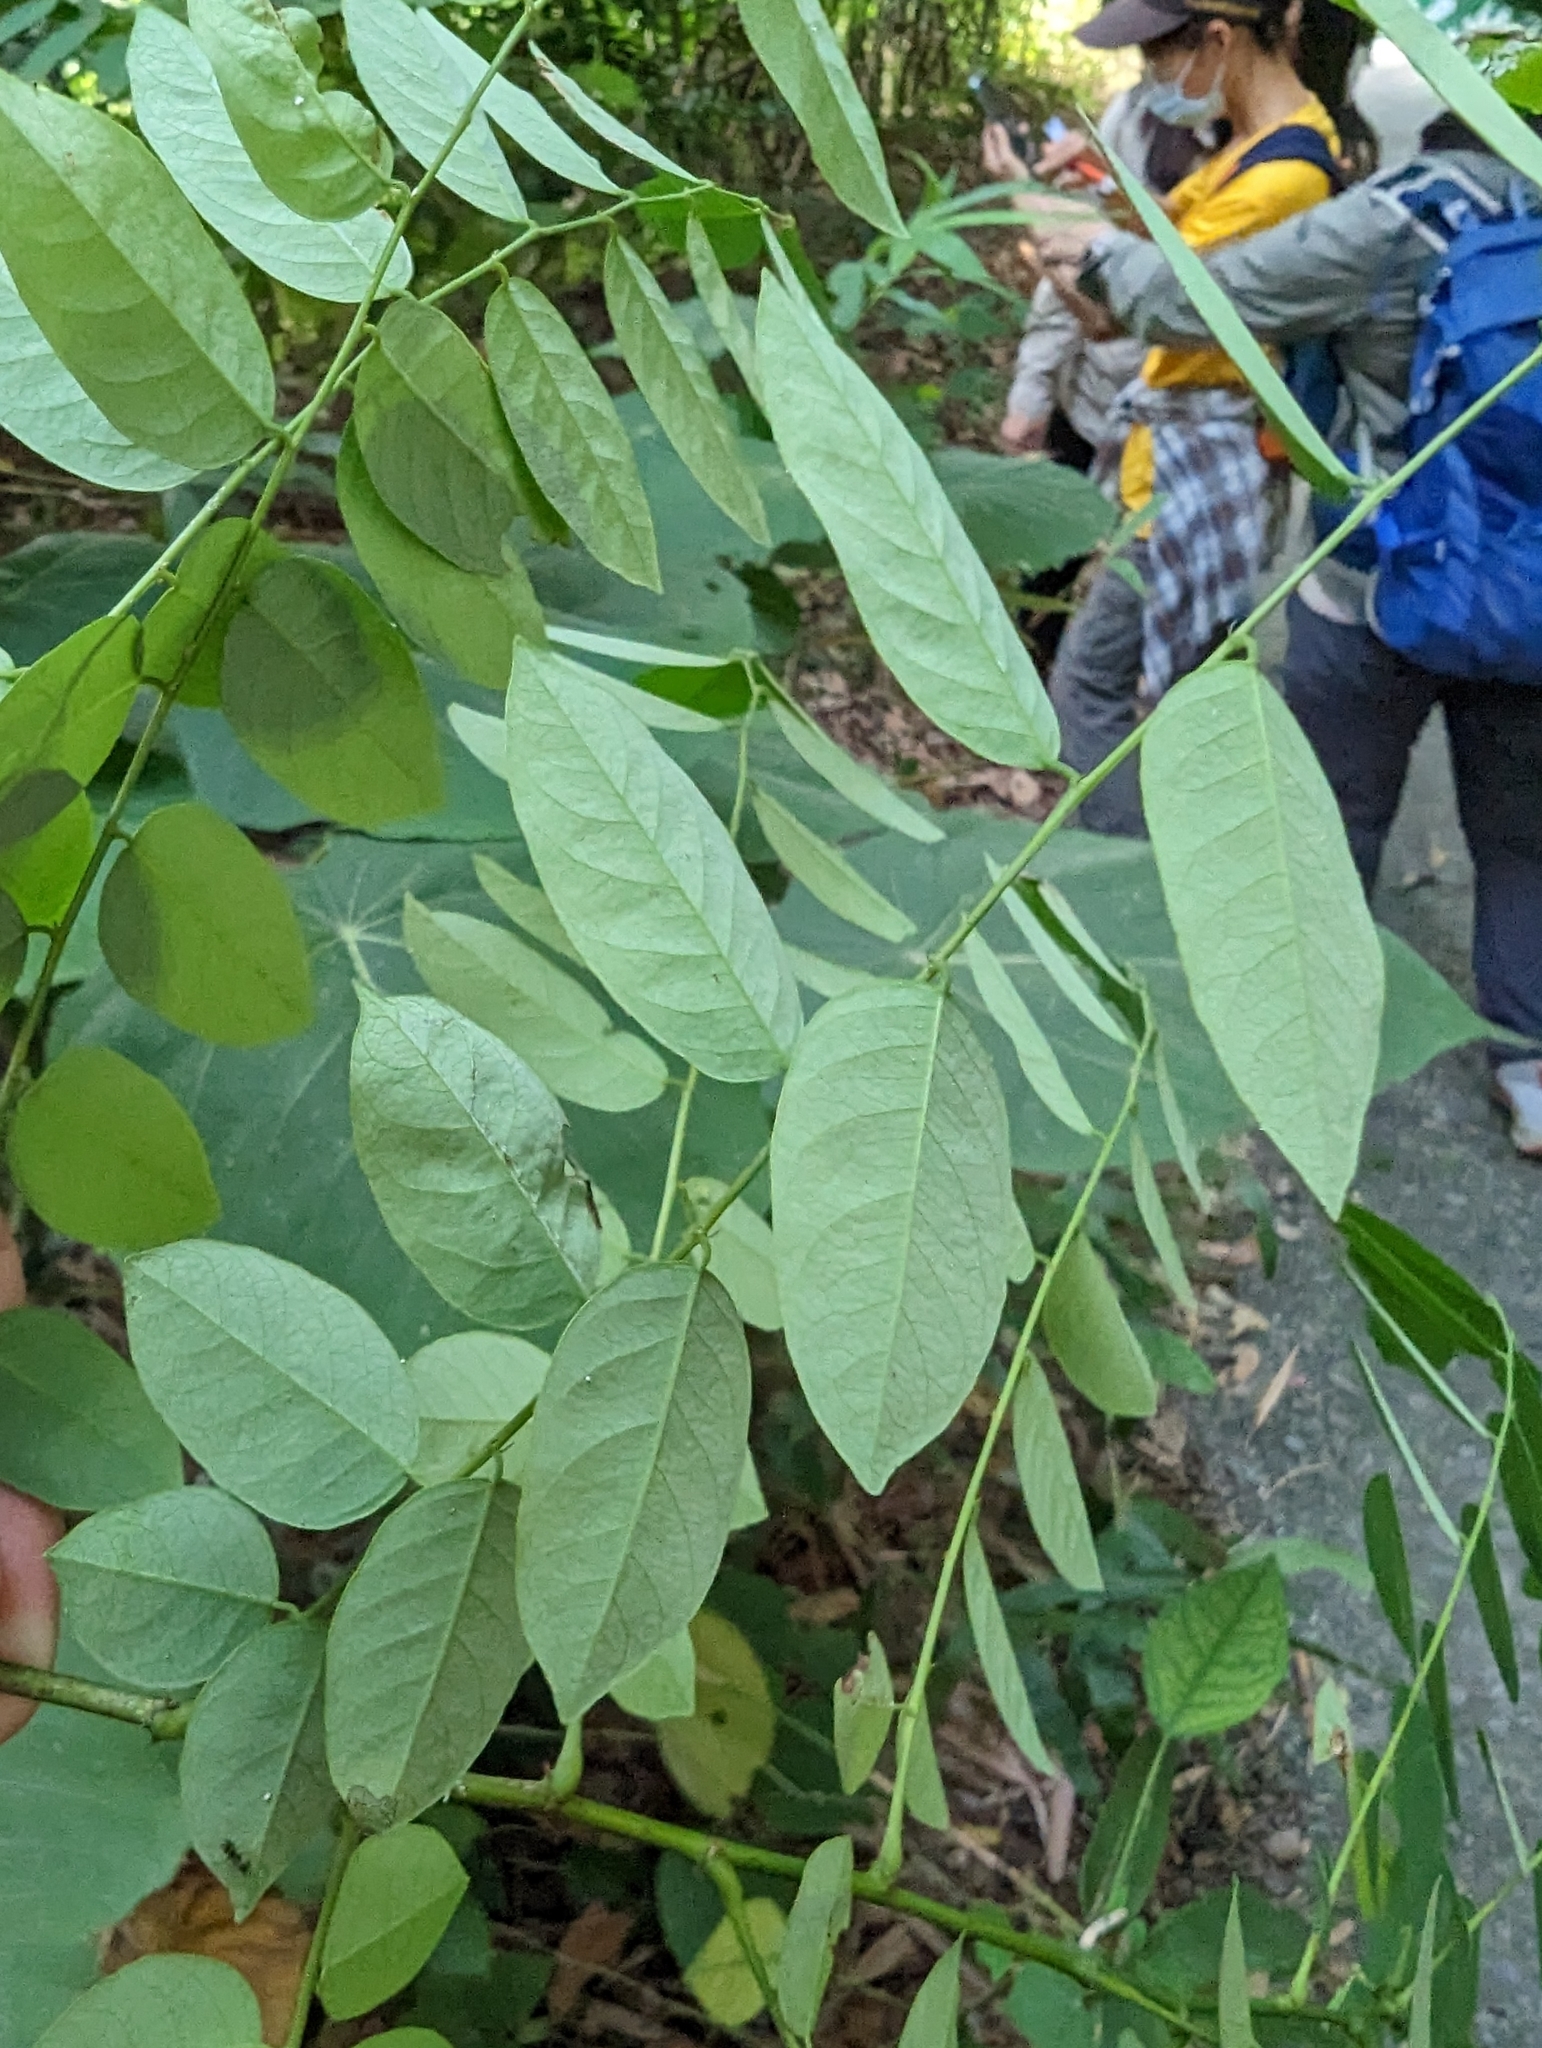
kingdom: Plantae
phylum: Tracheophyta
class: Magnoliopsida
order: Malpighiales
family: Phyllanthaceae
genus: Phyllanthus
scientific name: Phyllanthus reticulatus
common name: Potato bush
